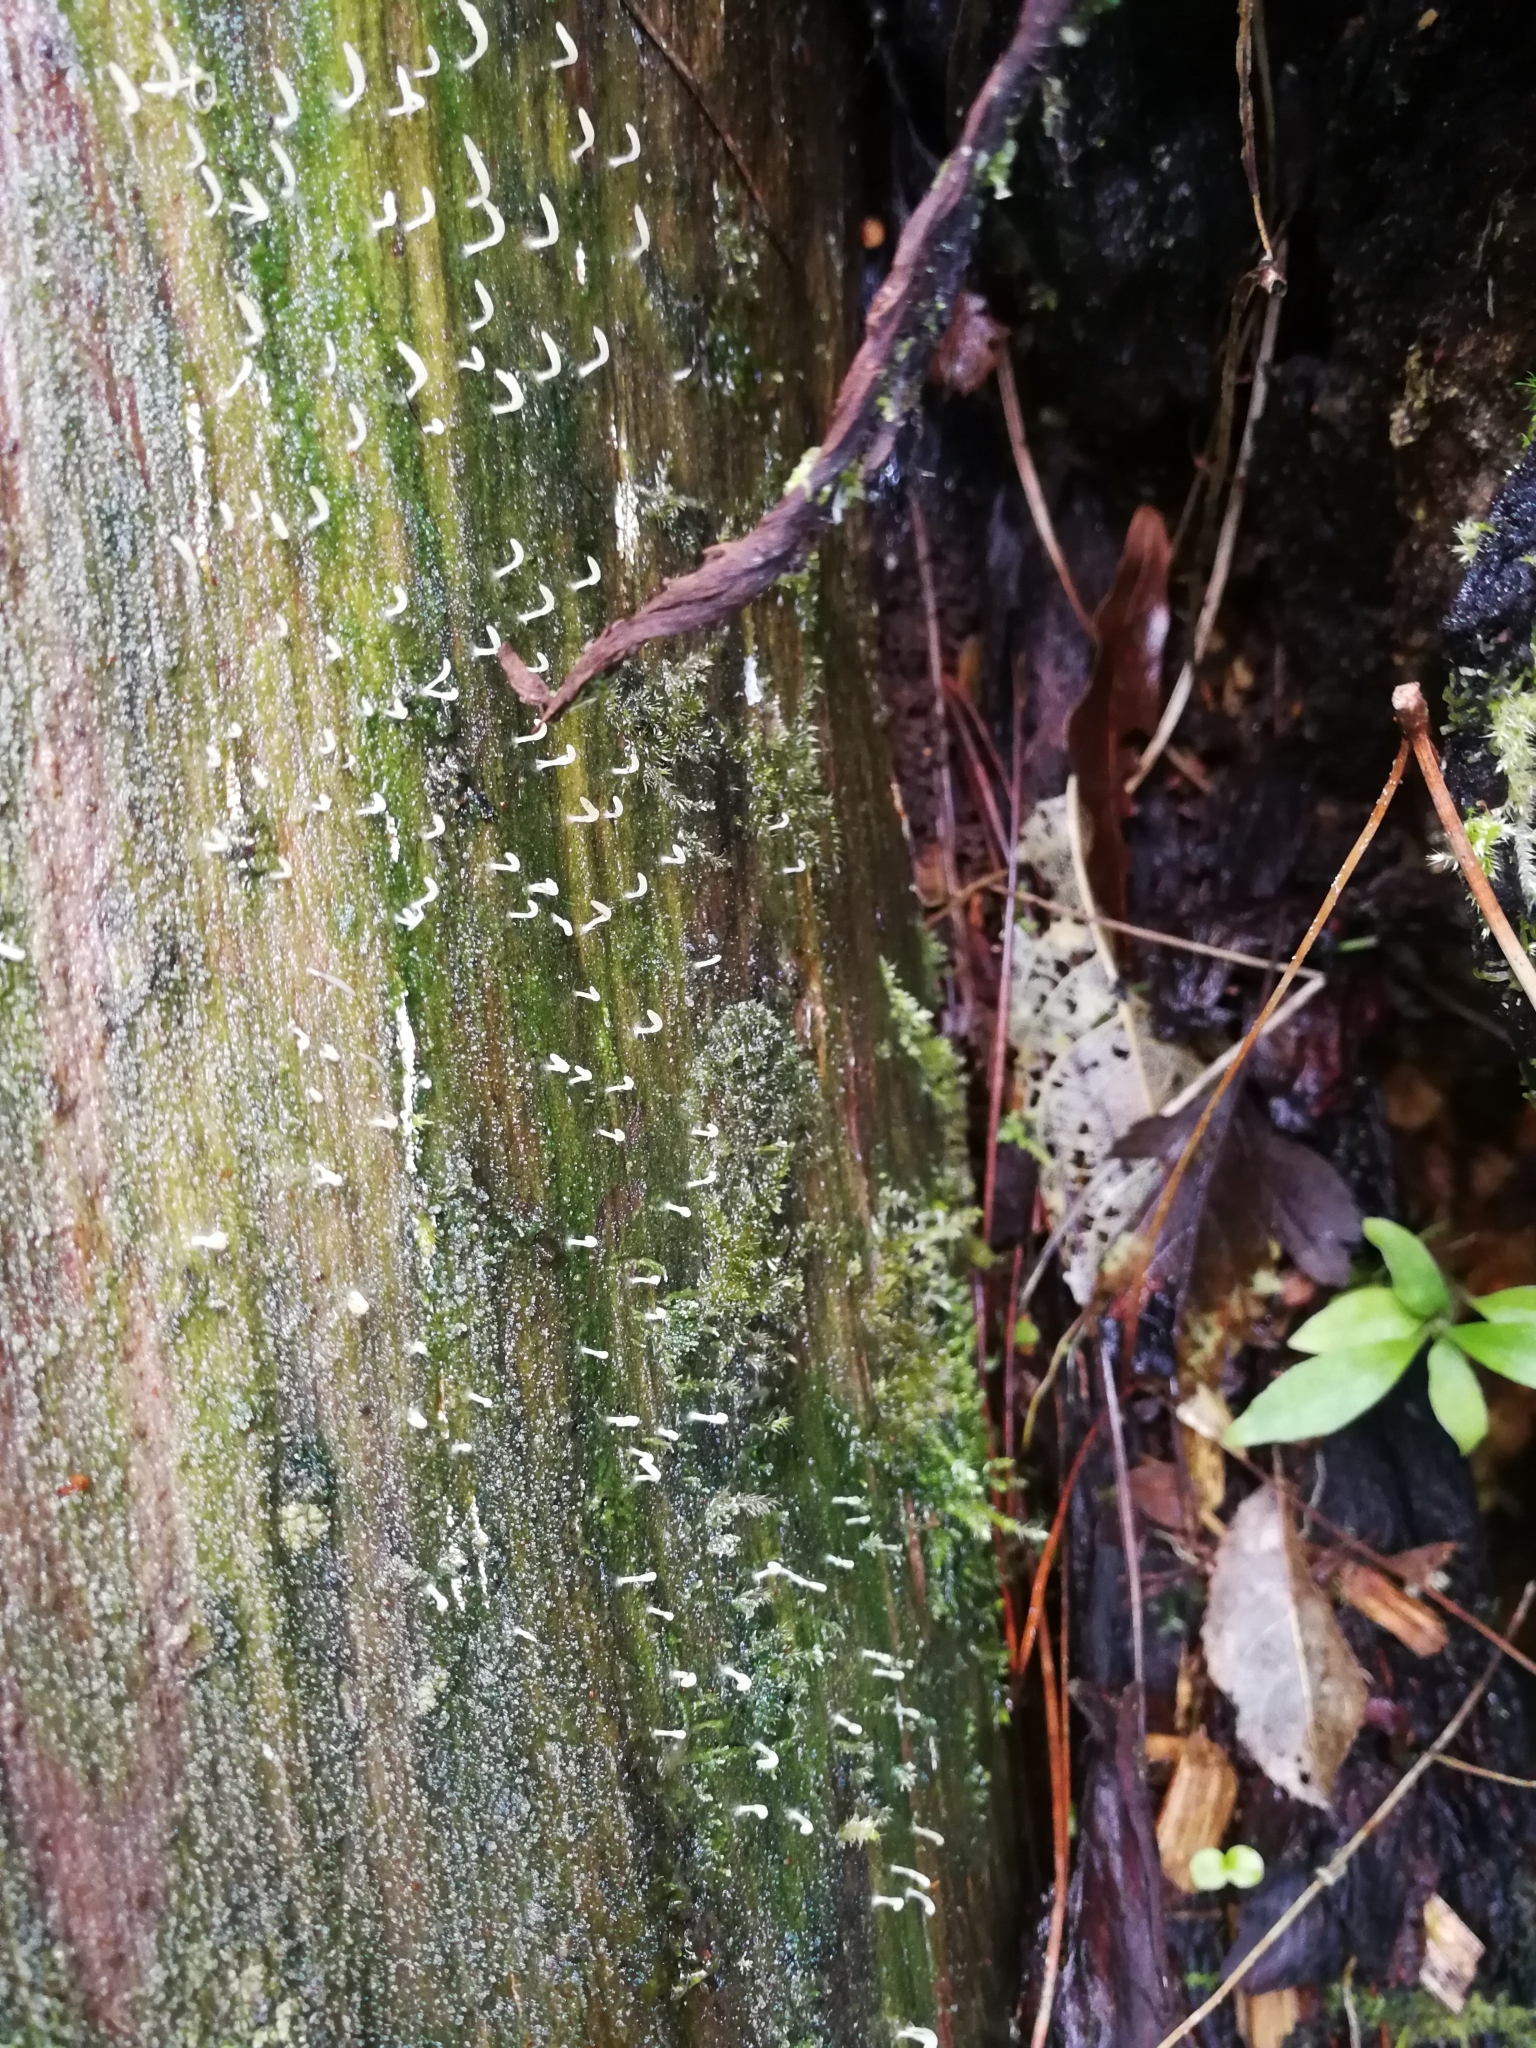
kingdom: Fungi
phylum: Basidiomycota
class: Agaricomycetes
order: Cantharellales
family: Hydnaceae
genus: Multiclavula
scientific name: Multiclavula mucida
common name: White green-algae coral
